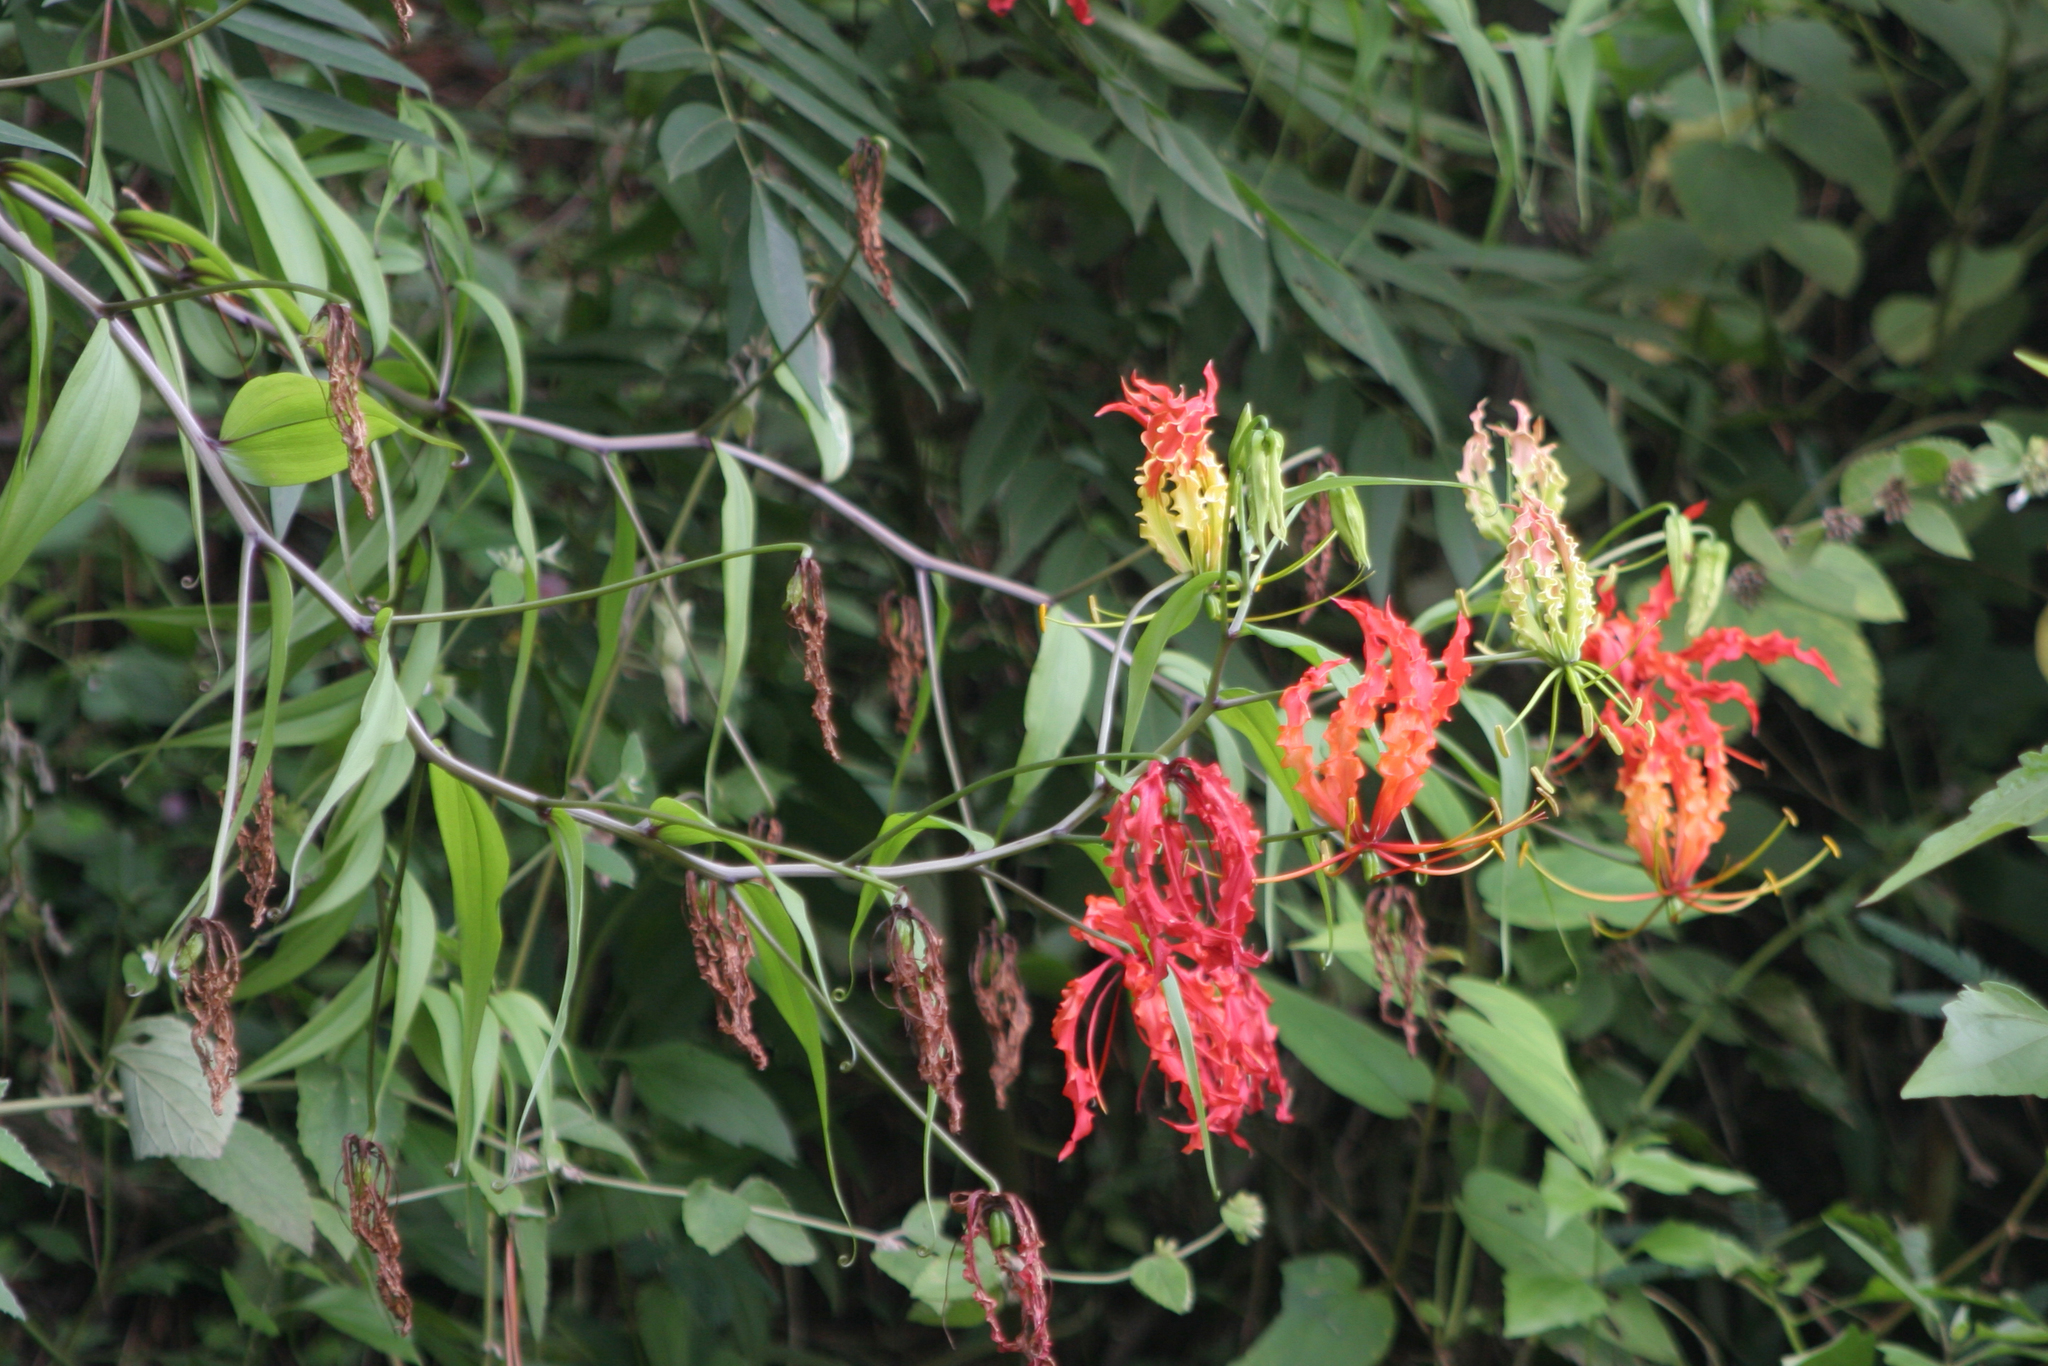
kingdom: Plantae
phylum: Tracheophyta
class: Liliopsida
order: Liliales
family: Colchicaceae
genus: Gloriosa
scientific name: Gloriosa superba
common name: Flame lily
